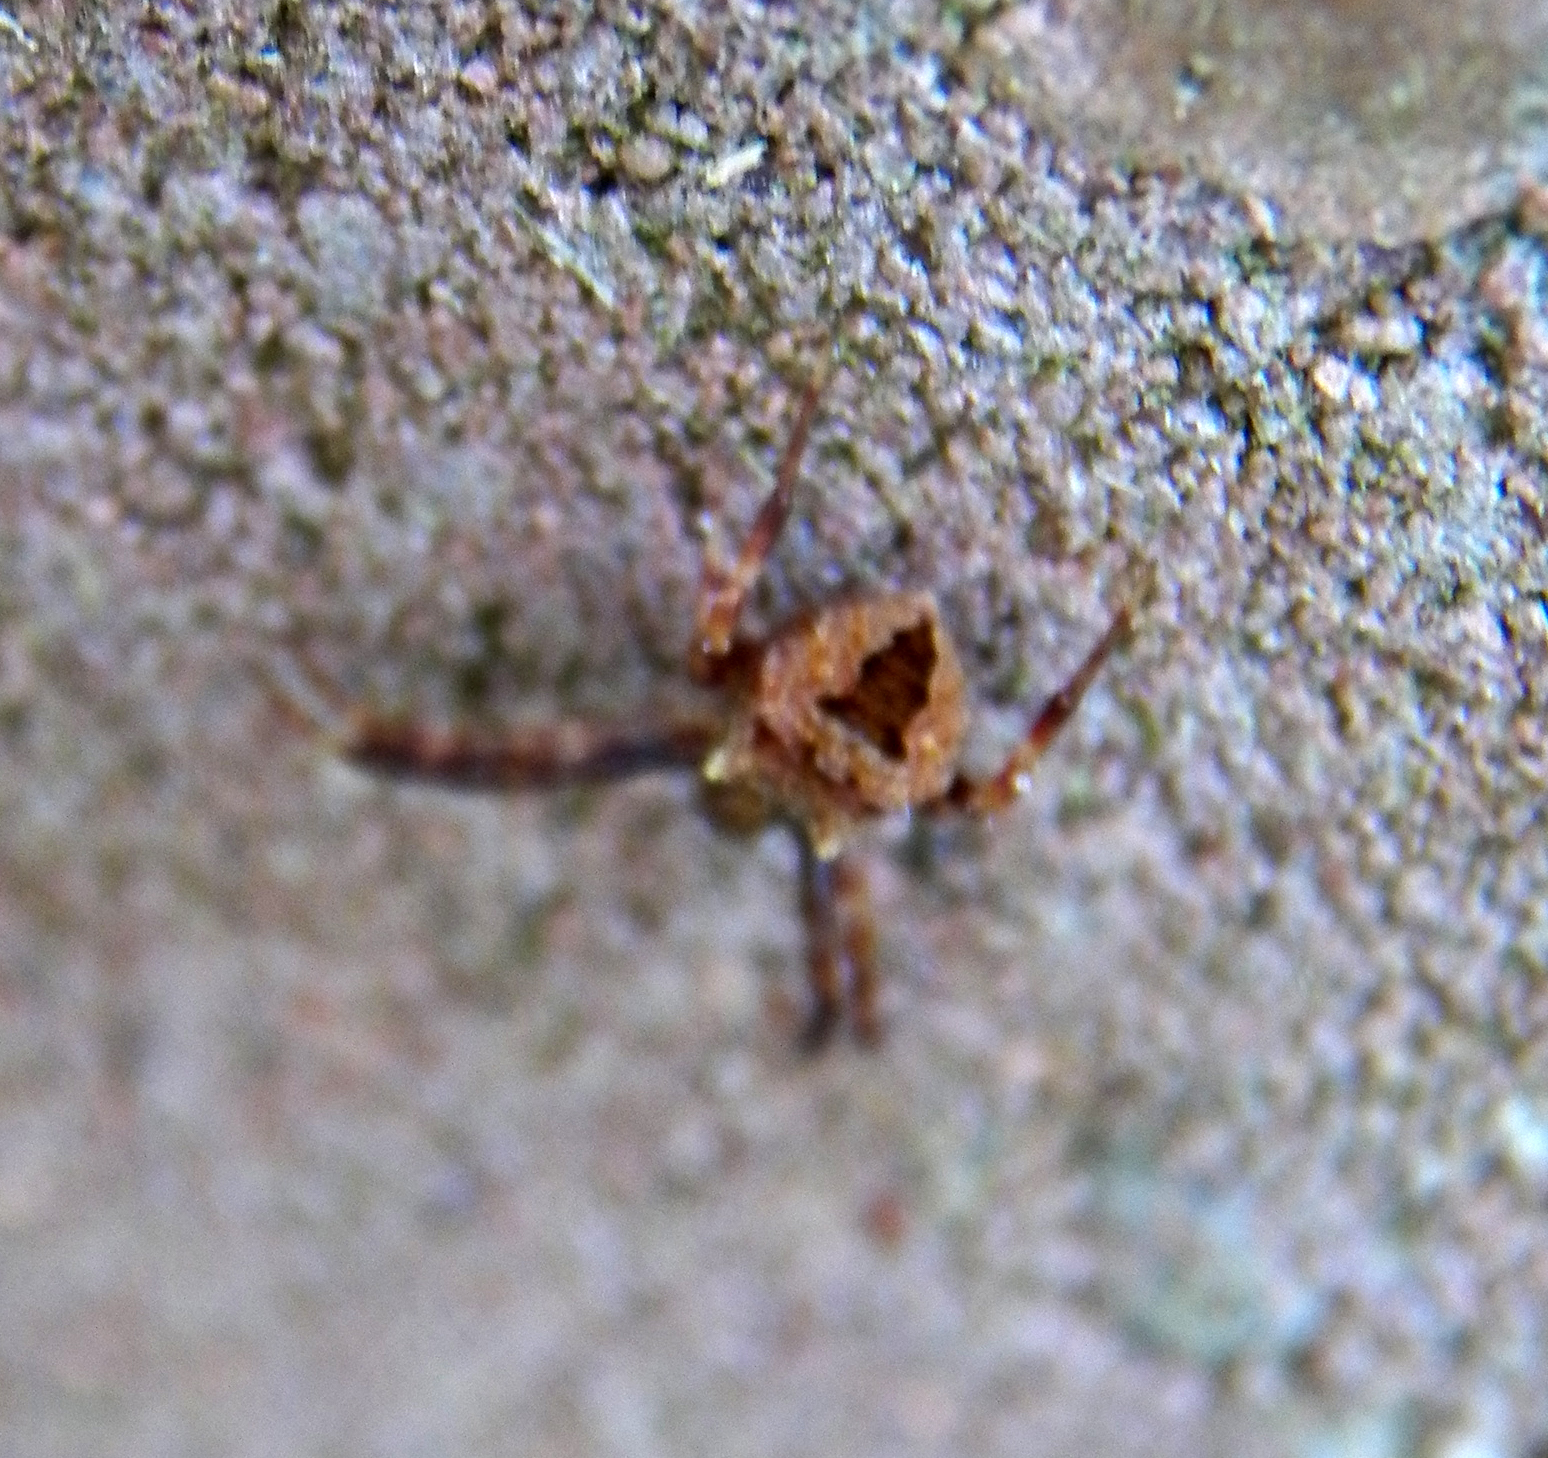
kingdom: Animalia
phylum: Arthropoda
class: Arachnida
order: Araneae
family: Araneidae
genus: Gea
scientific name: Gea heptagon
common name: Orb weavers
